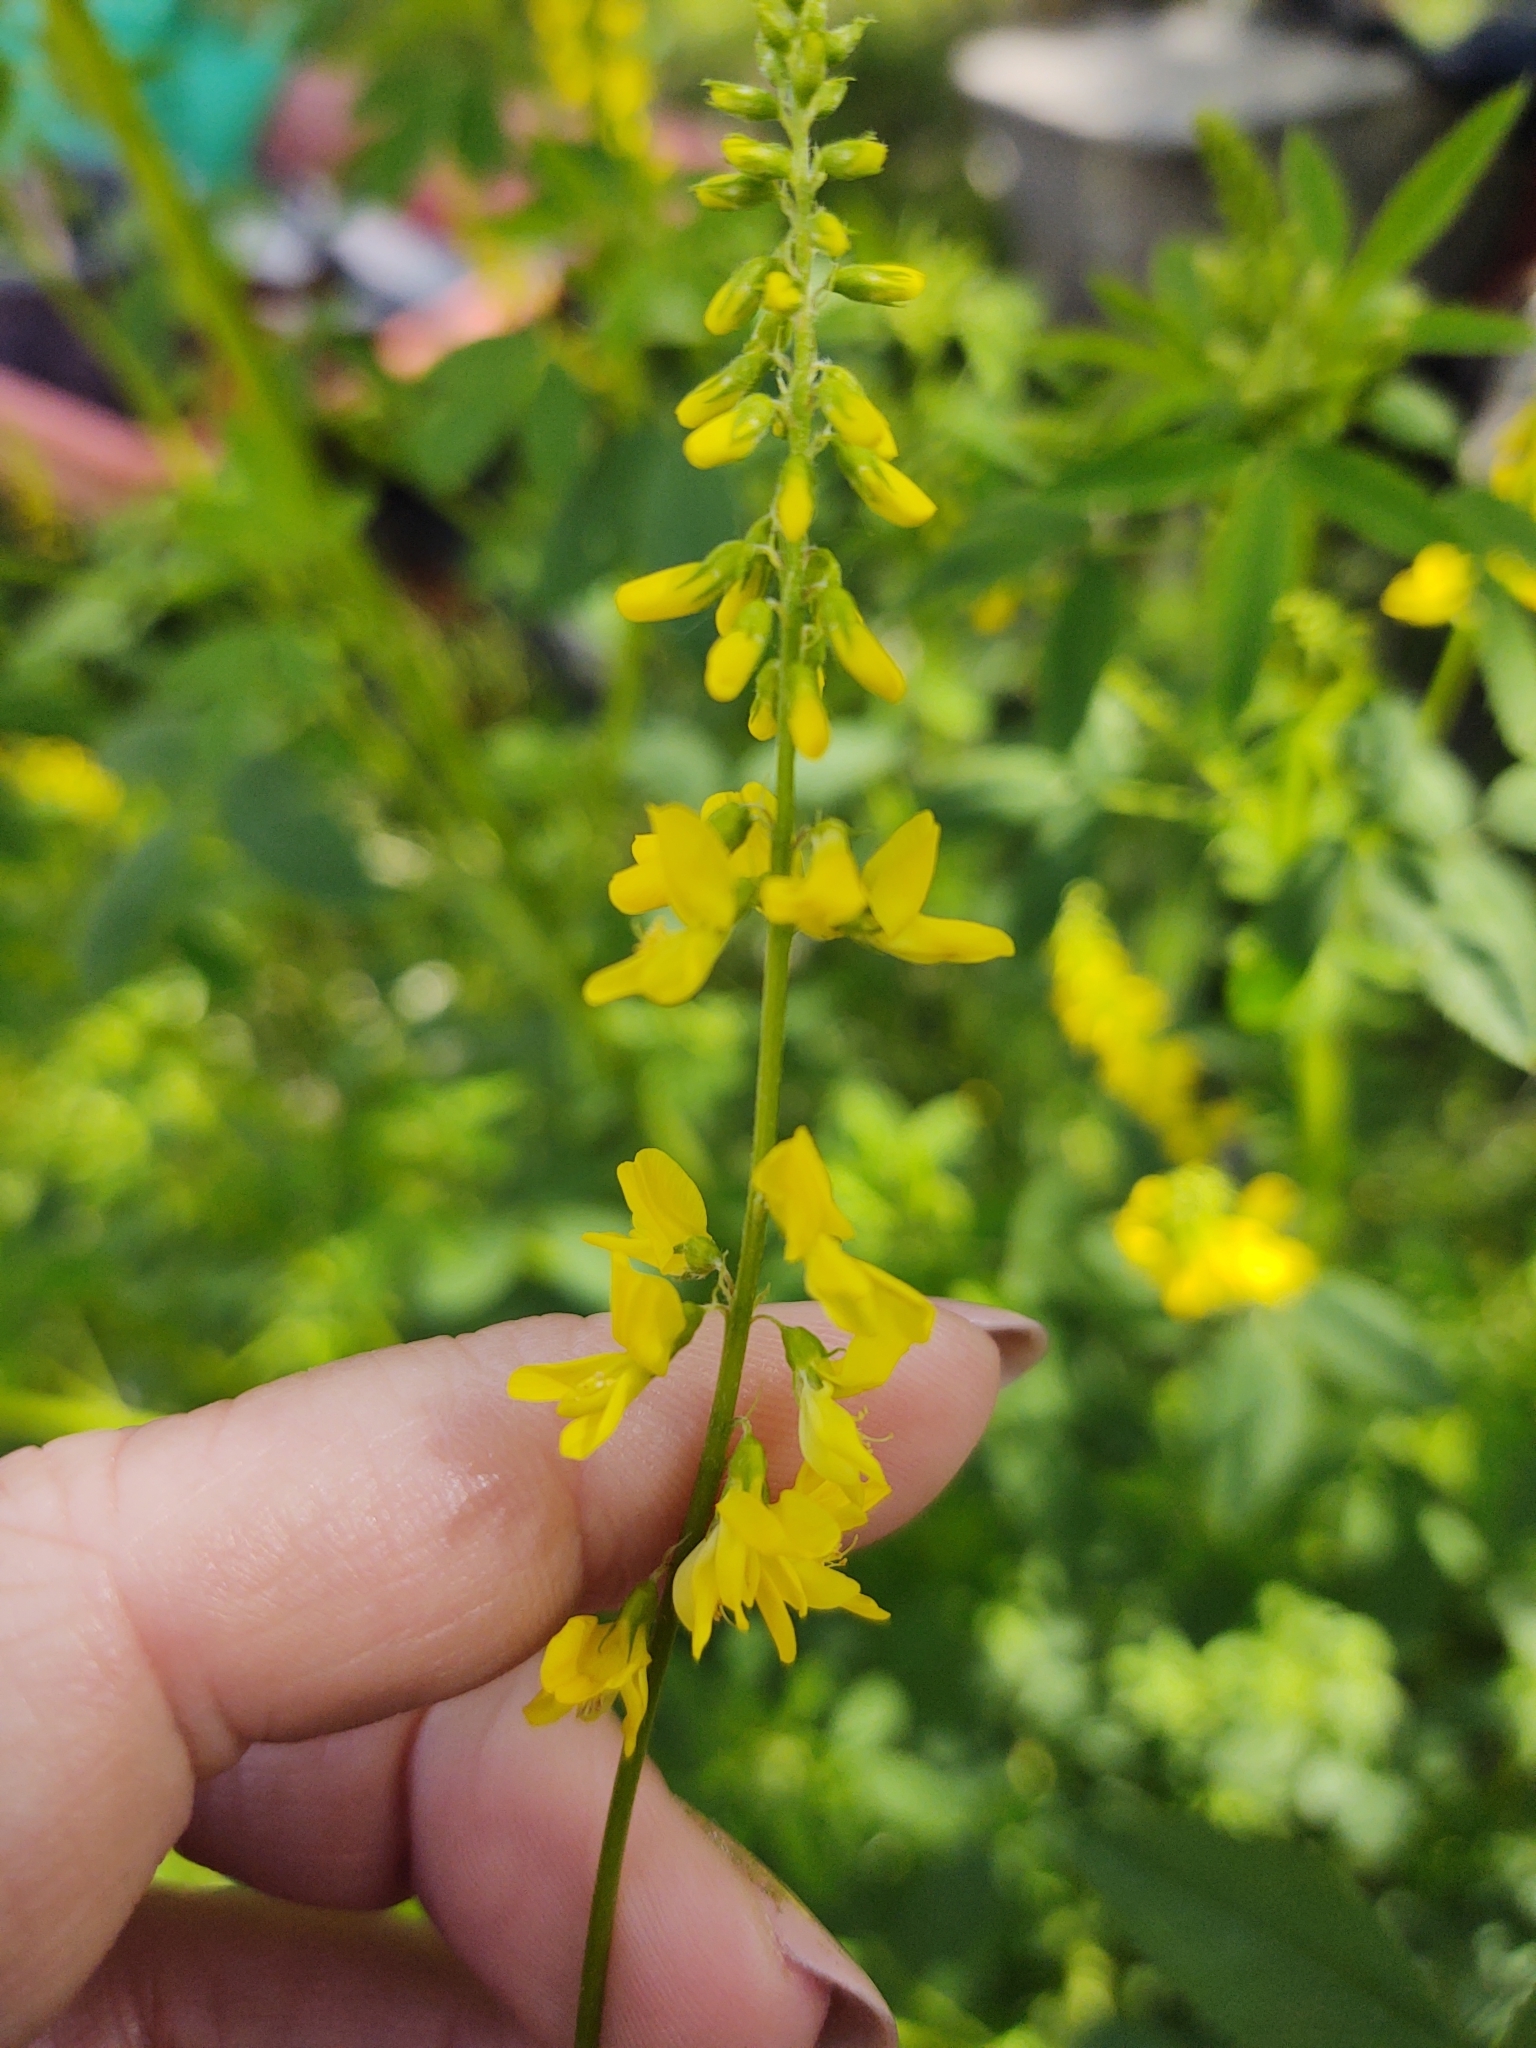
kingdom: Plantae
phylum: Tracheophyta
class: Magnoliopsida
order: Fabales
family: Fabaceae
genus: Melilotus
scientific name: Melilotus officinalis
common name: Sweetclover
